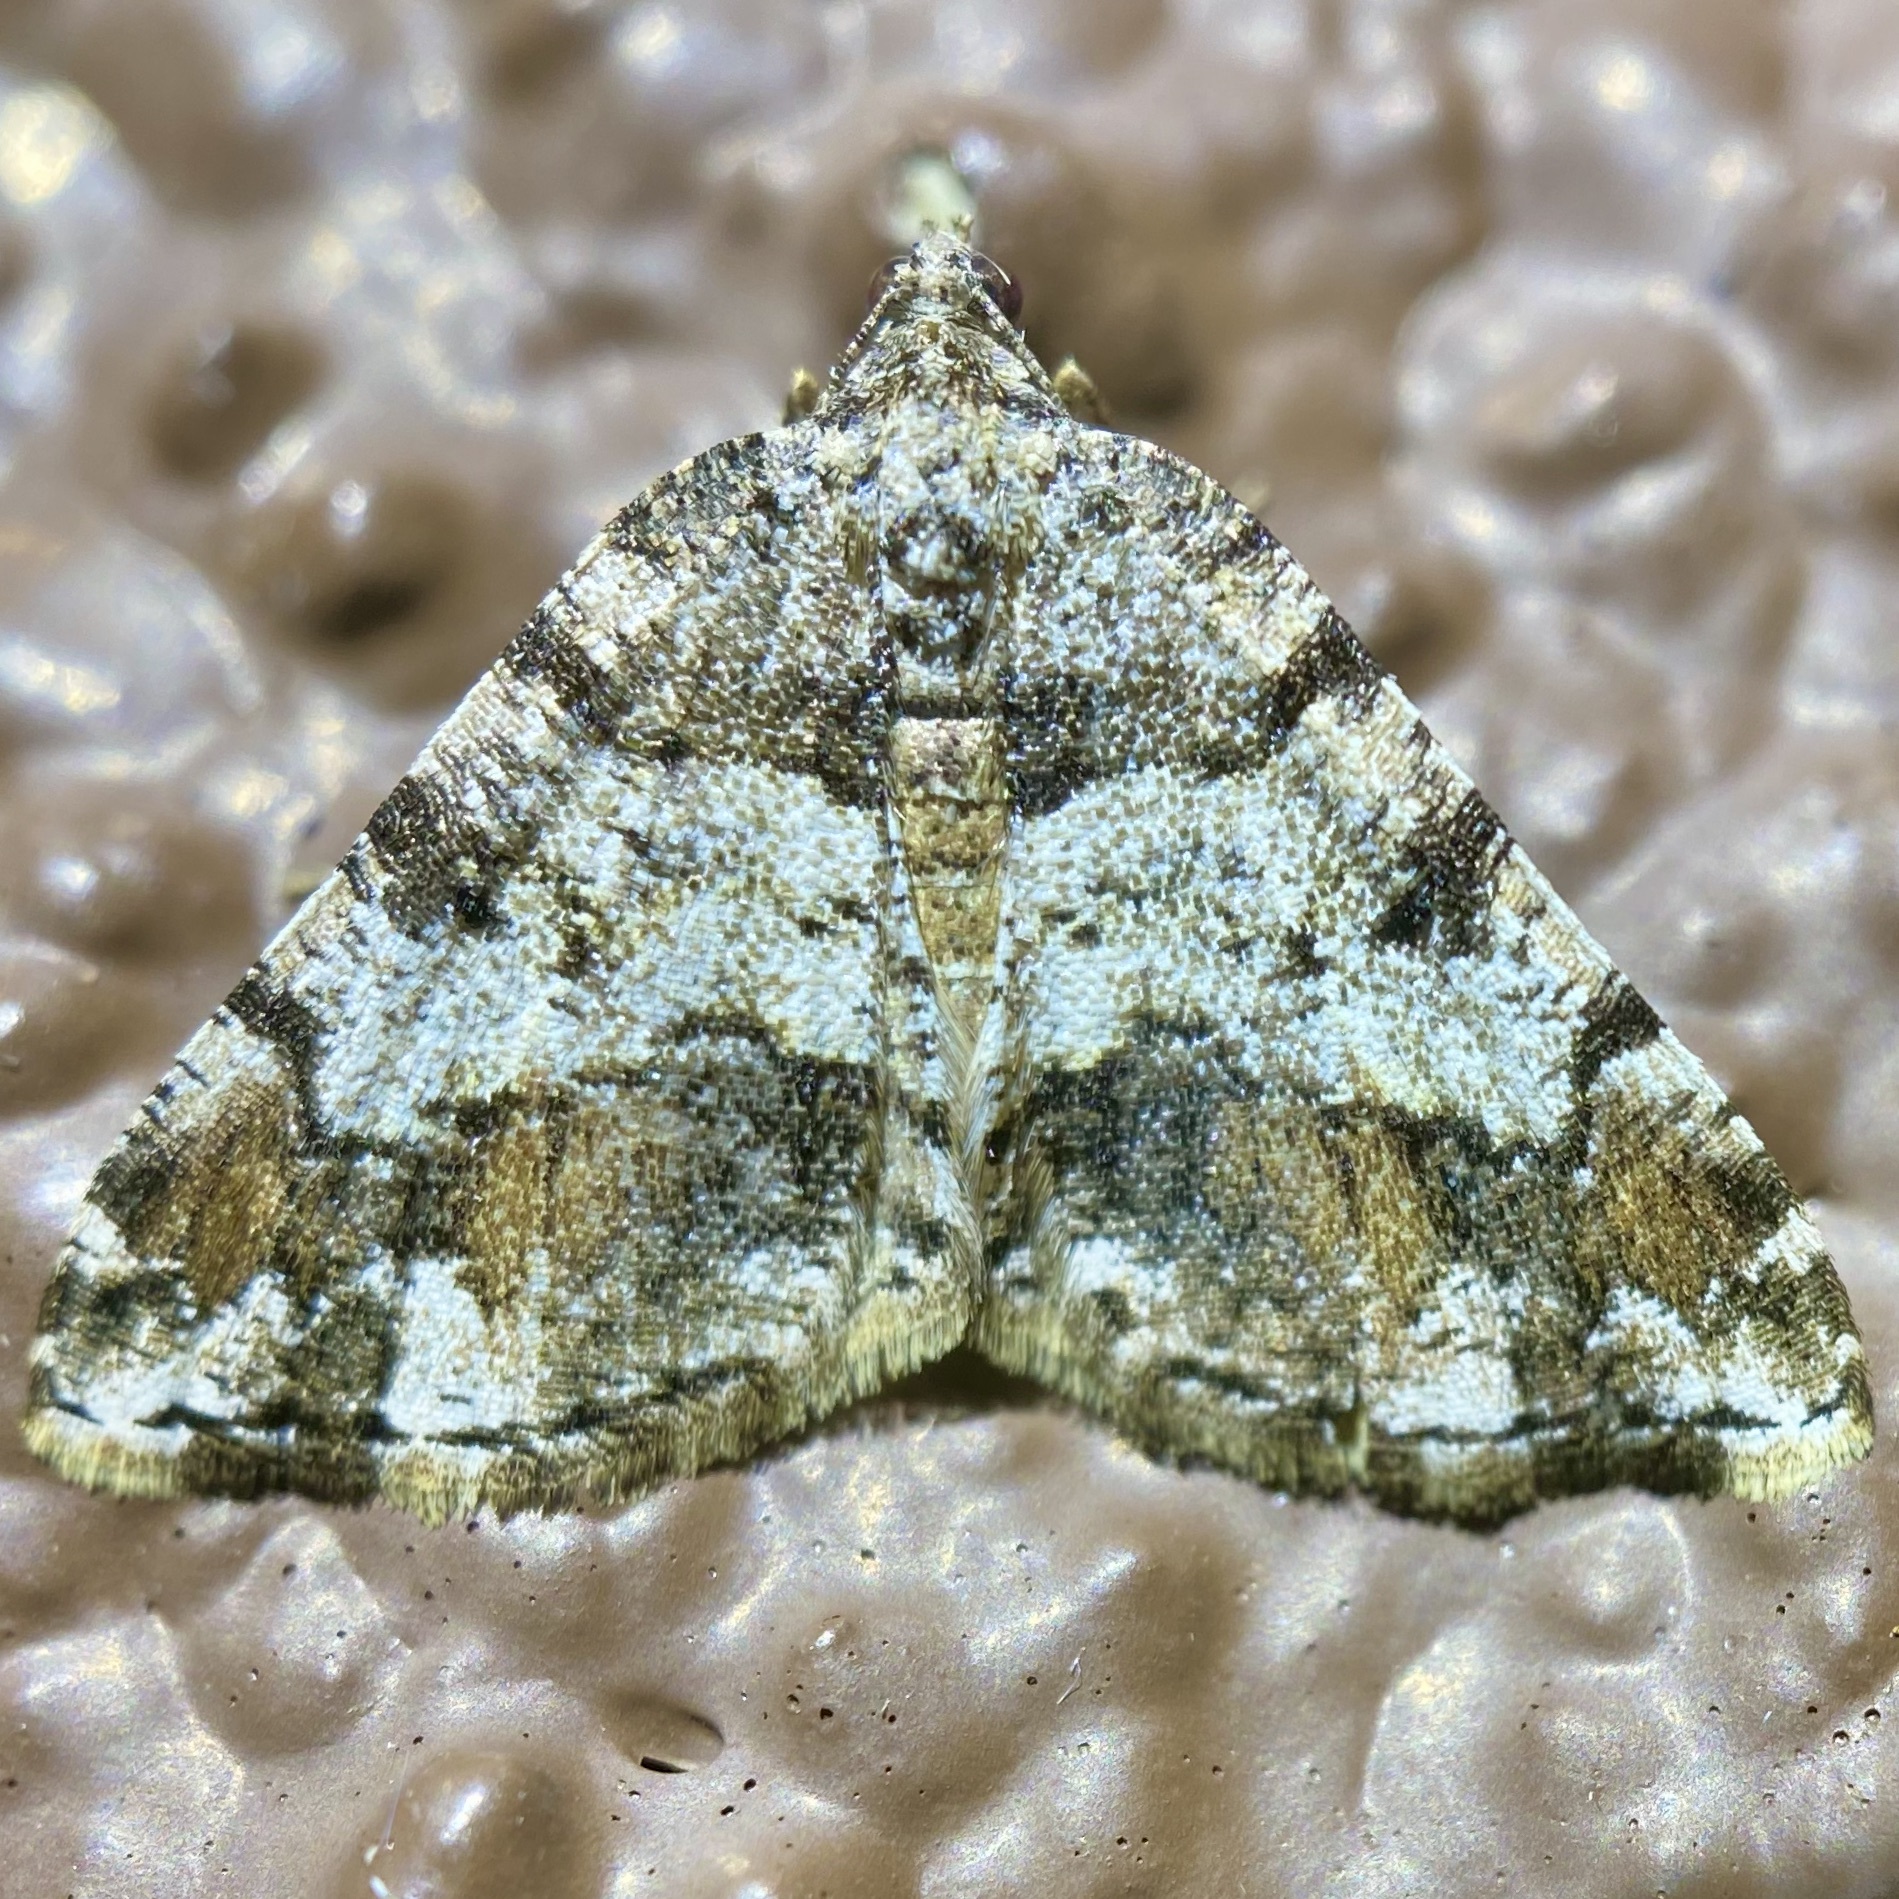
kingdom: Animalia
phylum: Arthropoda
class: Insecta
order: Lepidoptera
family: Geometridae
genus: Macaria
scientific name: Macaria deceptrix
